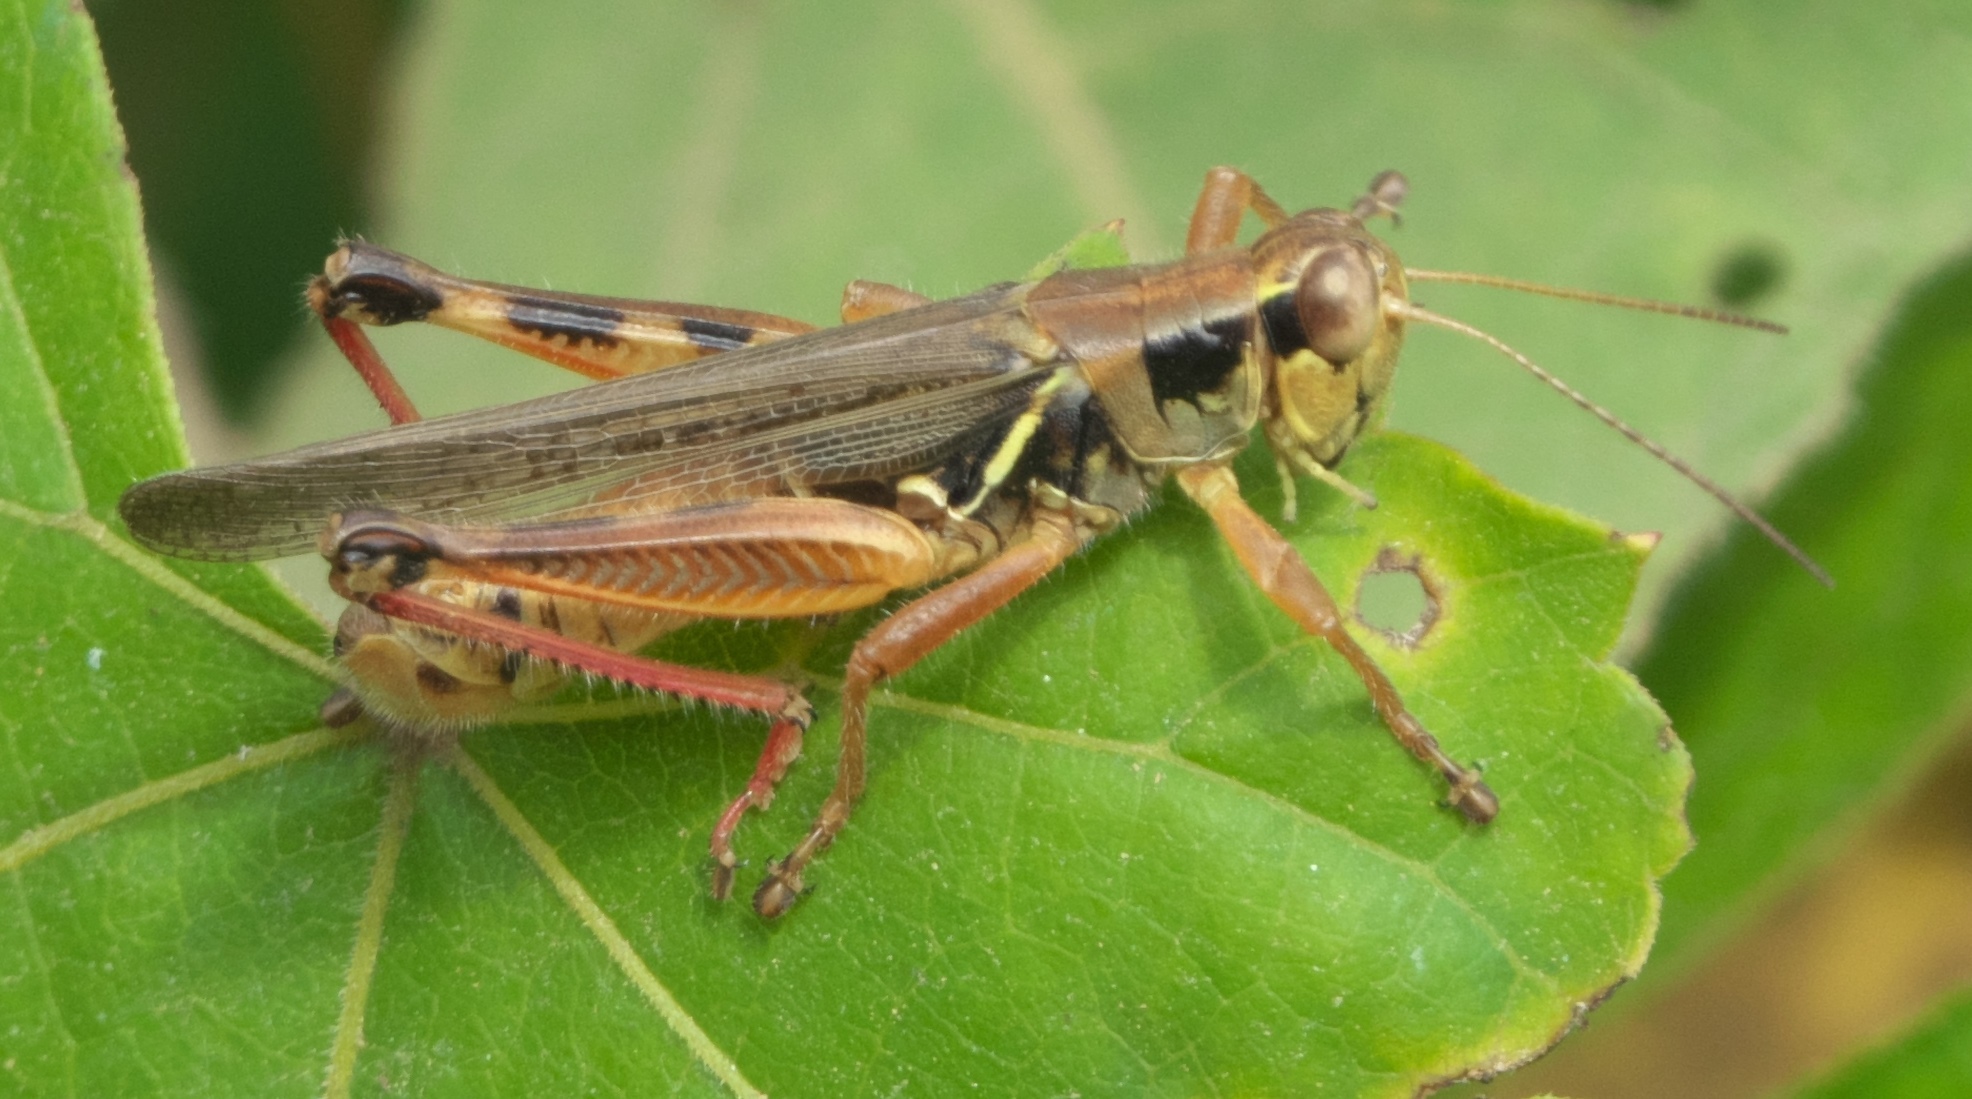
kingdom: Animalia
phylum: Arthropoda
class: Insecta
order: Orthoptera
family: Acrididae
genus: Melanoplus
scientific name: Melanoplus femurrubrum
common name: Red-legged grasshopper
